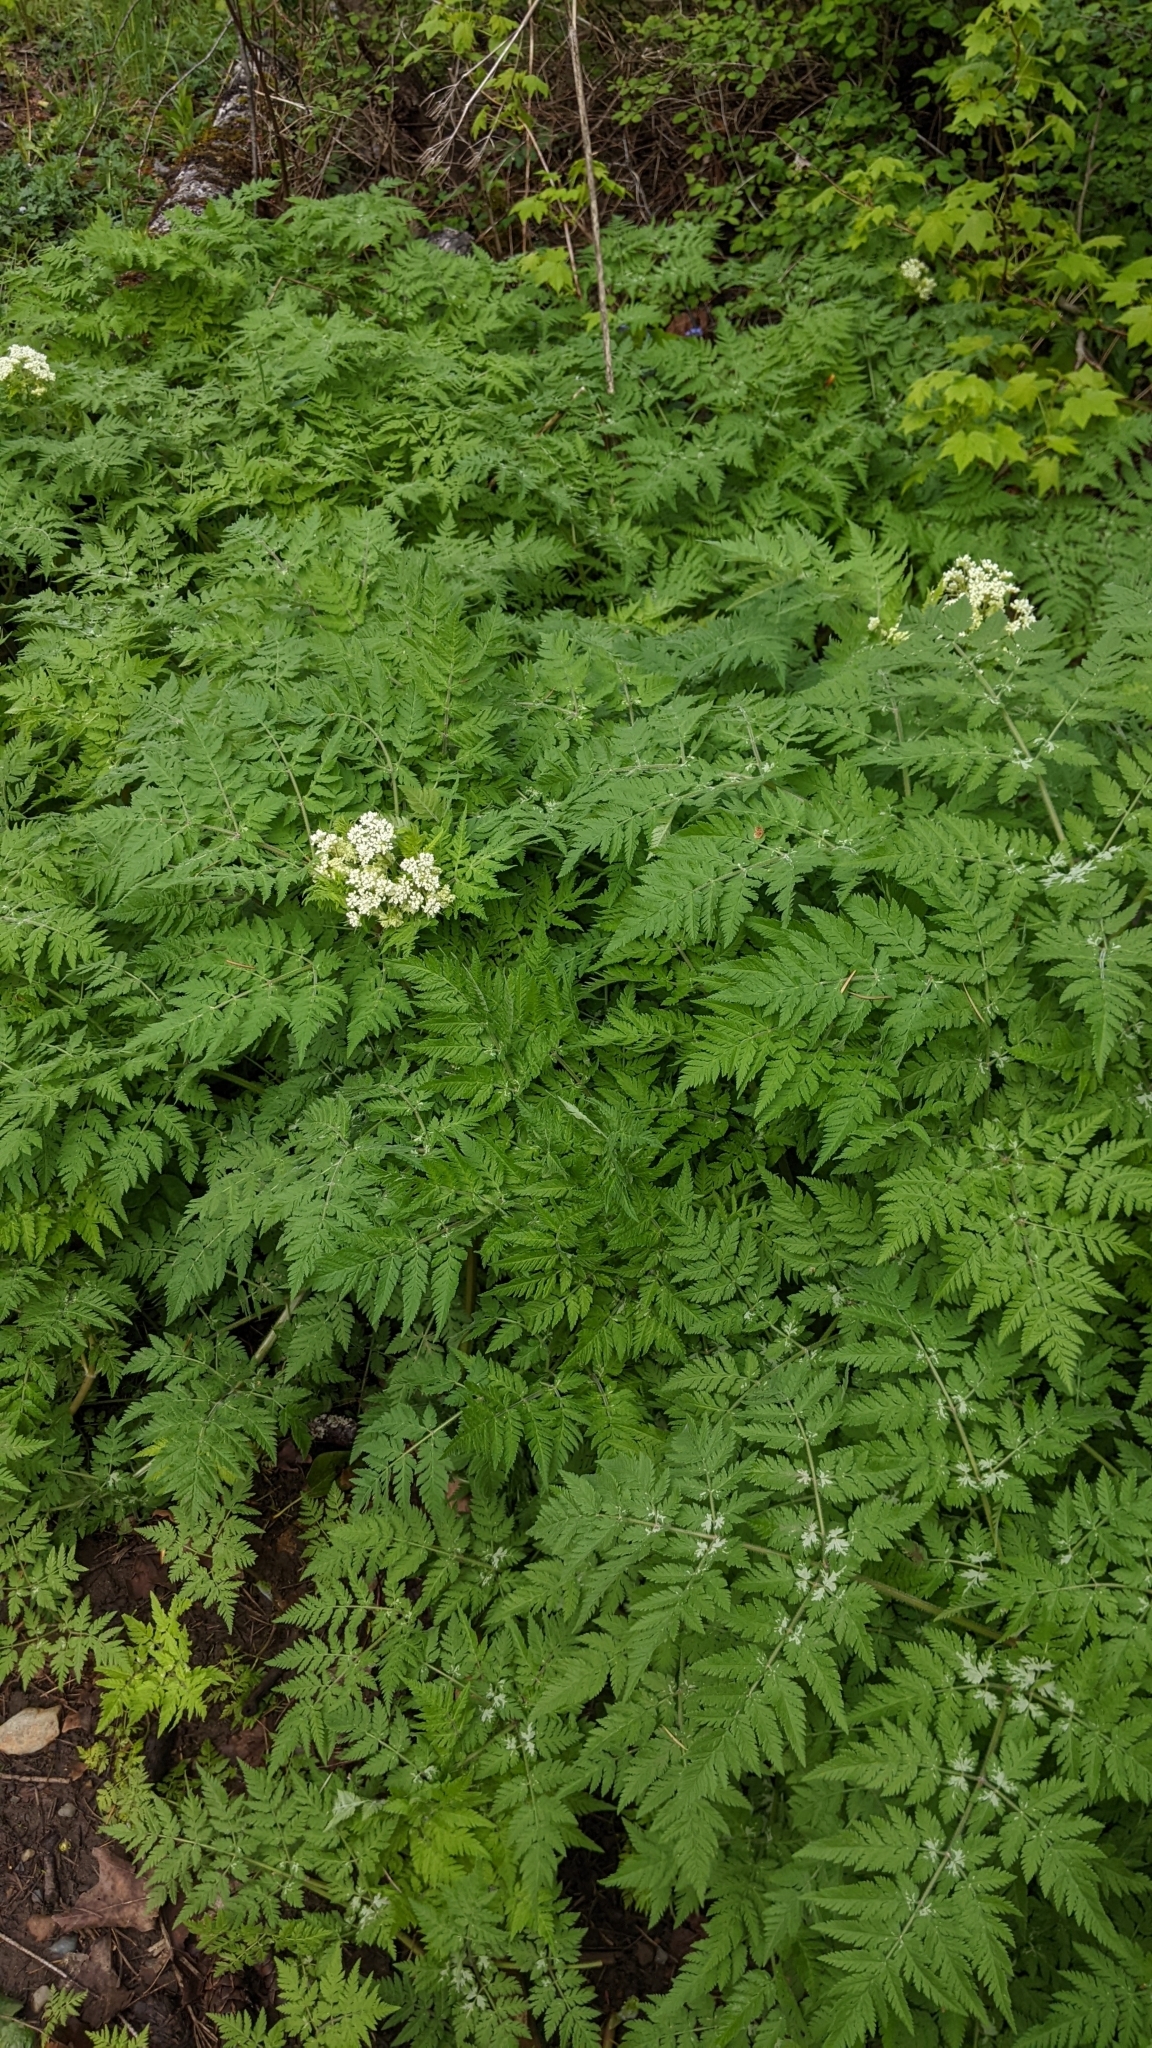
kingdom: Plantae
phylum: Tracheophyta
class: Magnoliopsida
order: Apiales
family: Apiaceae
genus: Myrrhis
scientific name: Myrrhis odorata
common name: Sweet cicely
